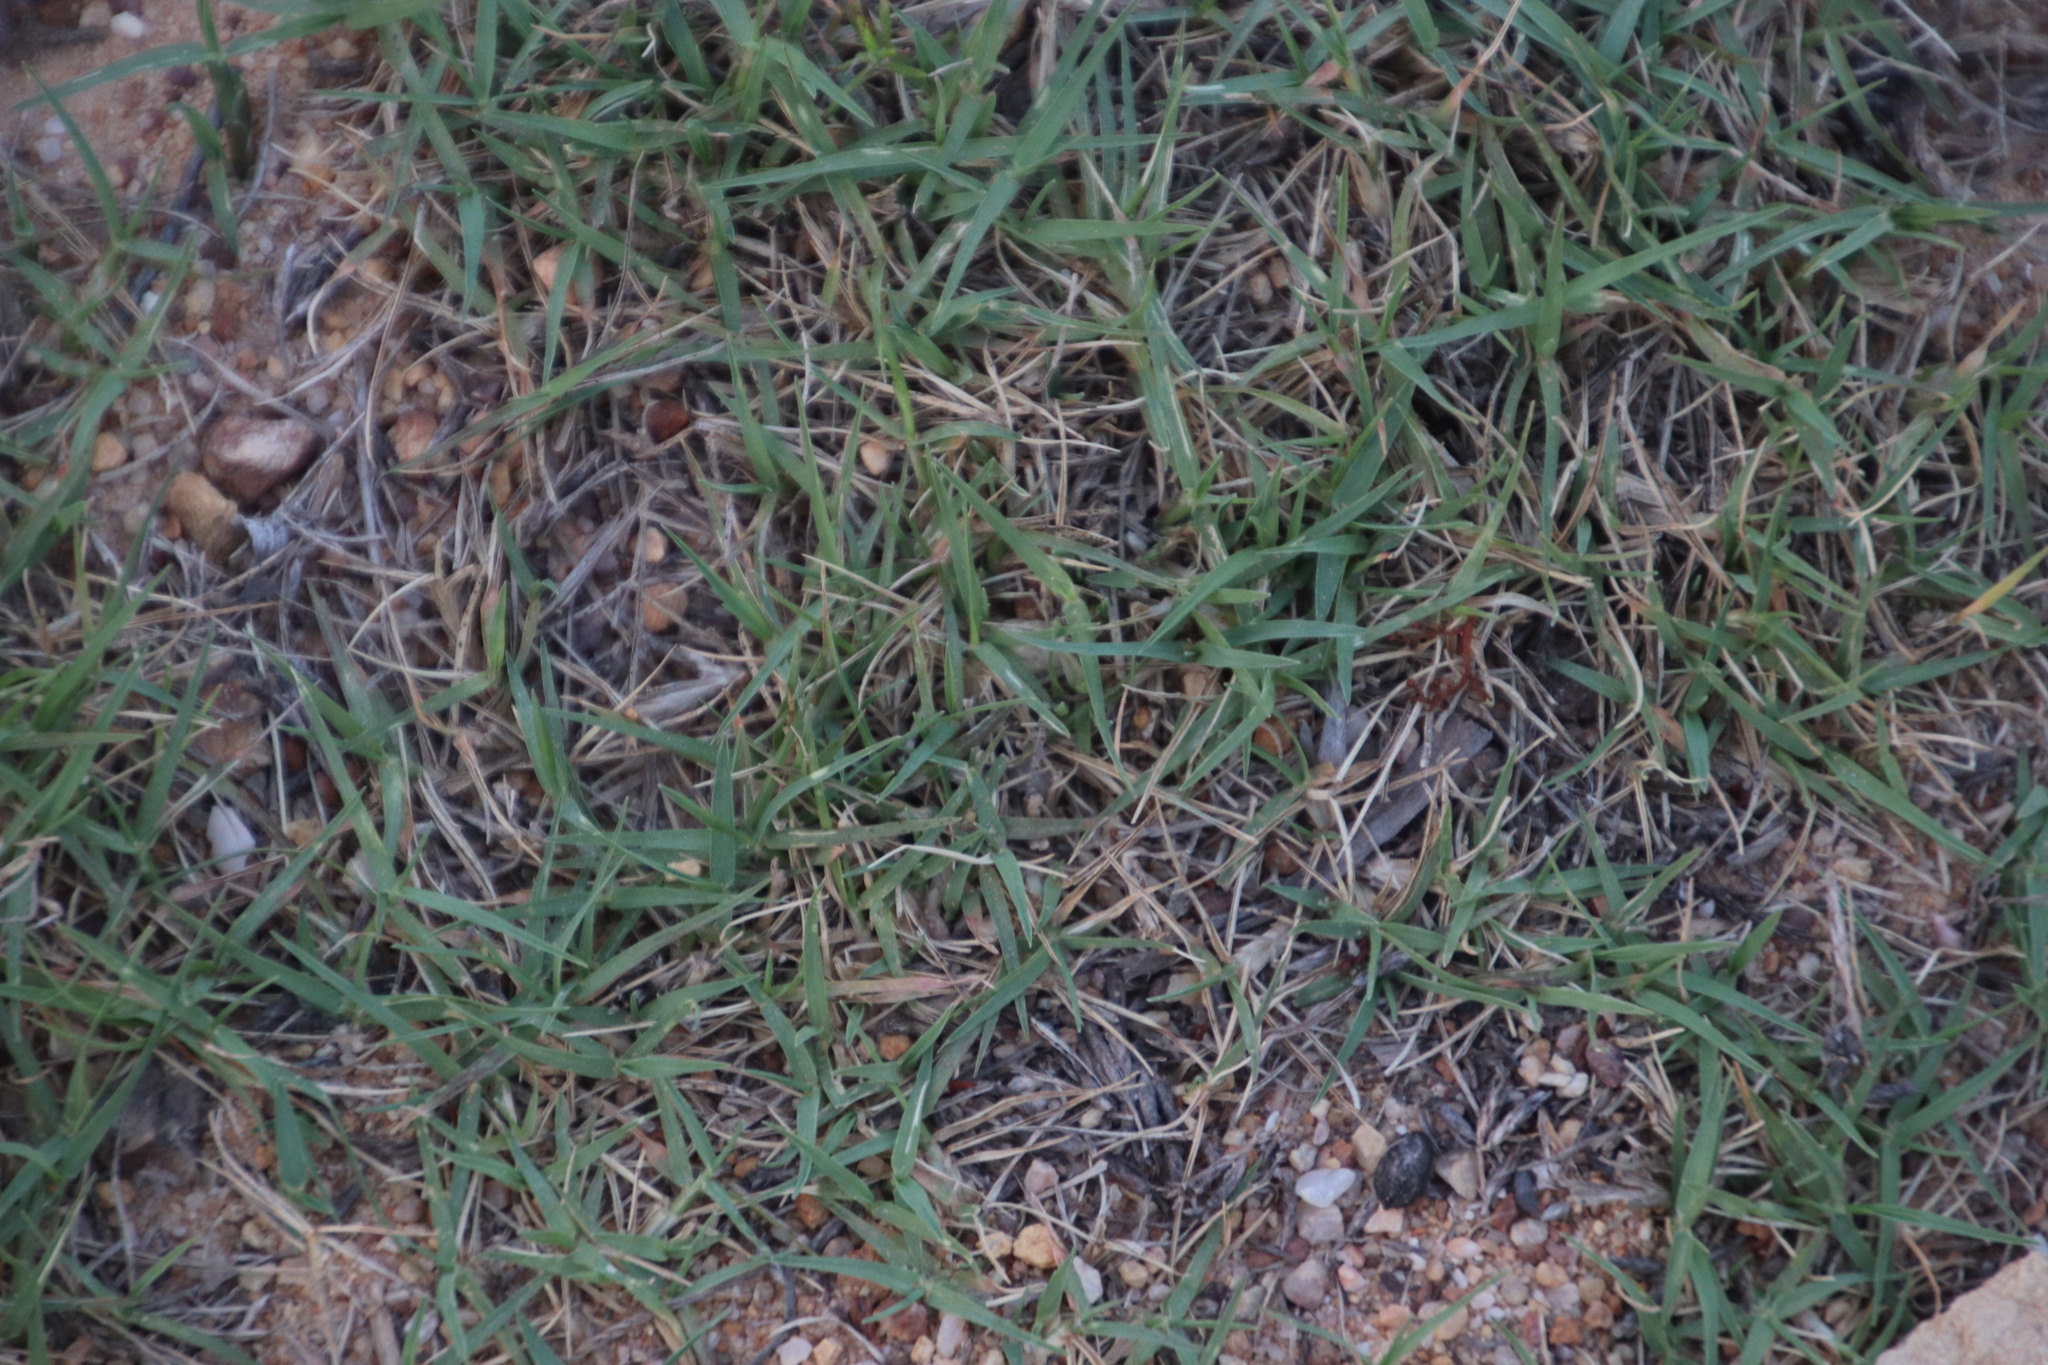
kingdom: Plantae
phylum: Tracheophyta
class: Liliopsida
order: Poales
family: Poaceae
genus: Cynodon
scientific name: Cynodon dactylon
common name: Bermuda grass
